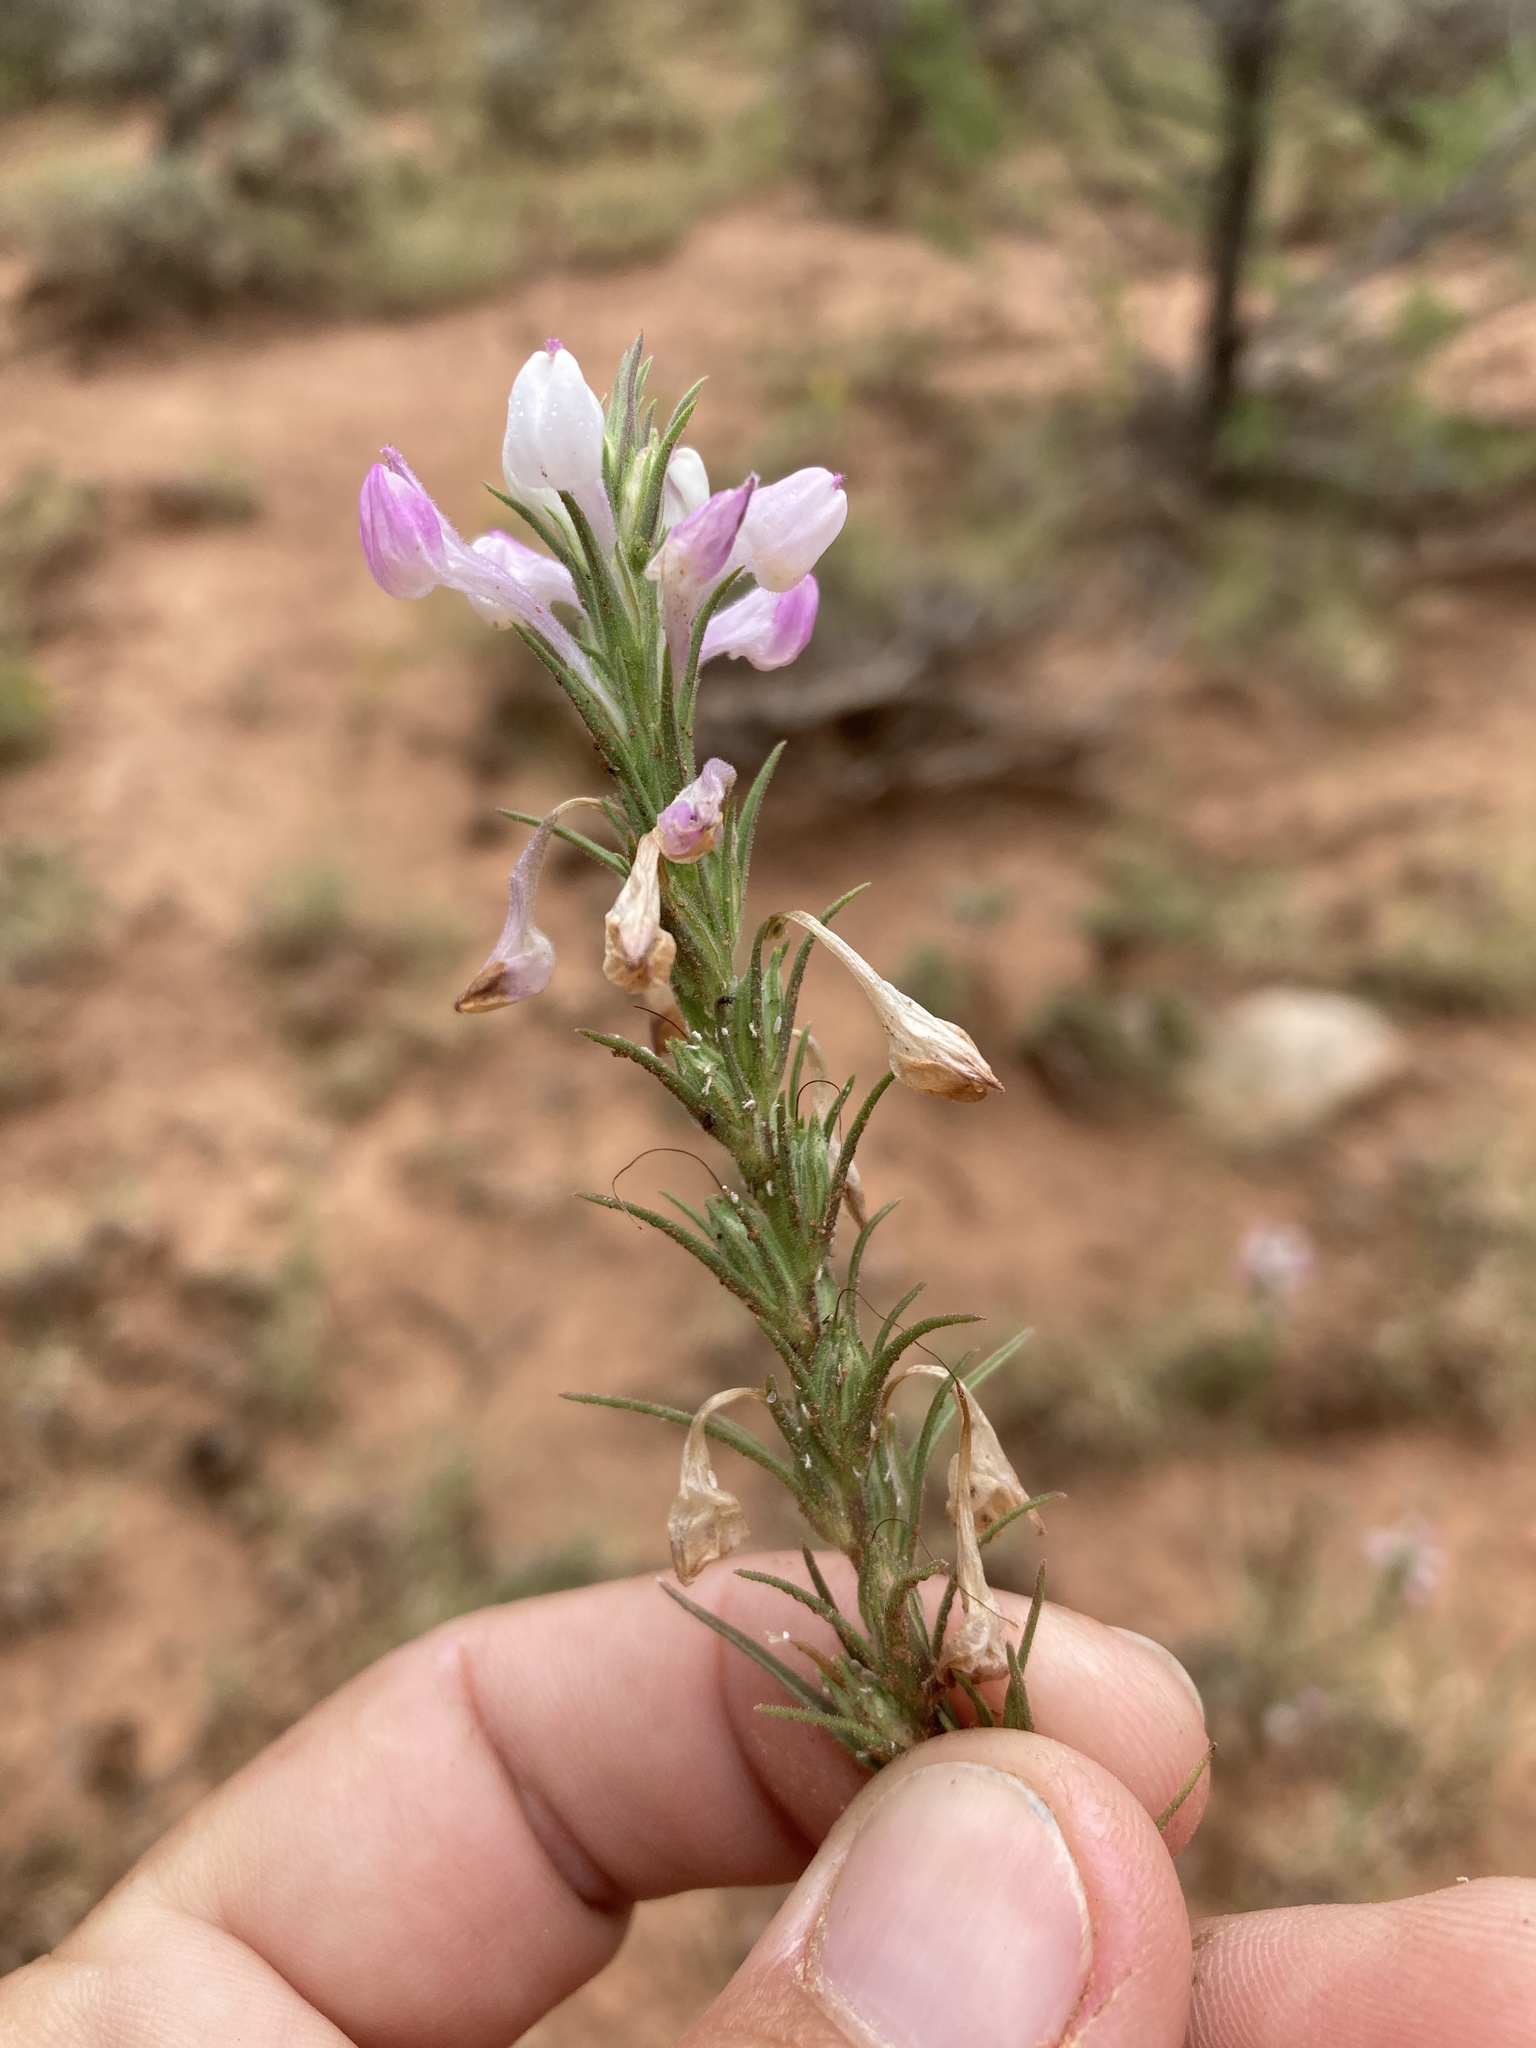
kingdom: Plantae
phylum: Tracheophyta
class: Magnoliopsida
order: Lamiales
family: Orobanchaceae
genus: Orthocarpus
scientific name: Orthocarpus purpureoalbus
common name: Violet owl-clover
